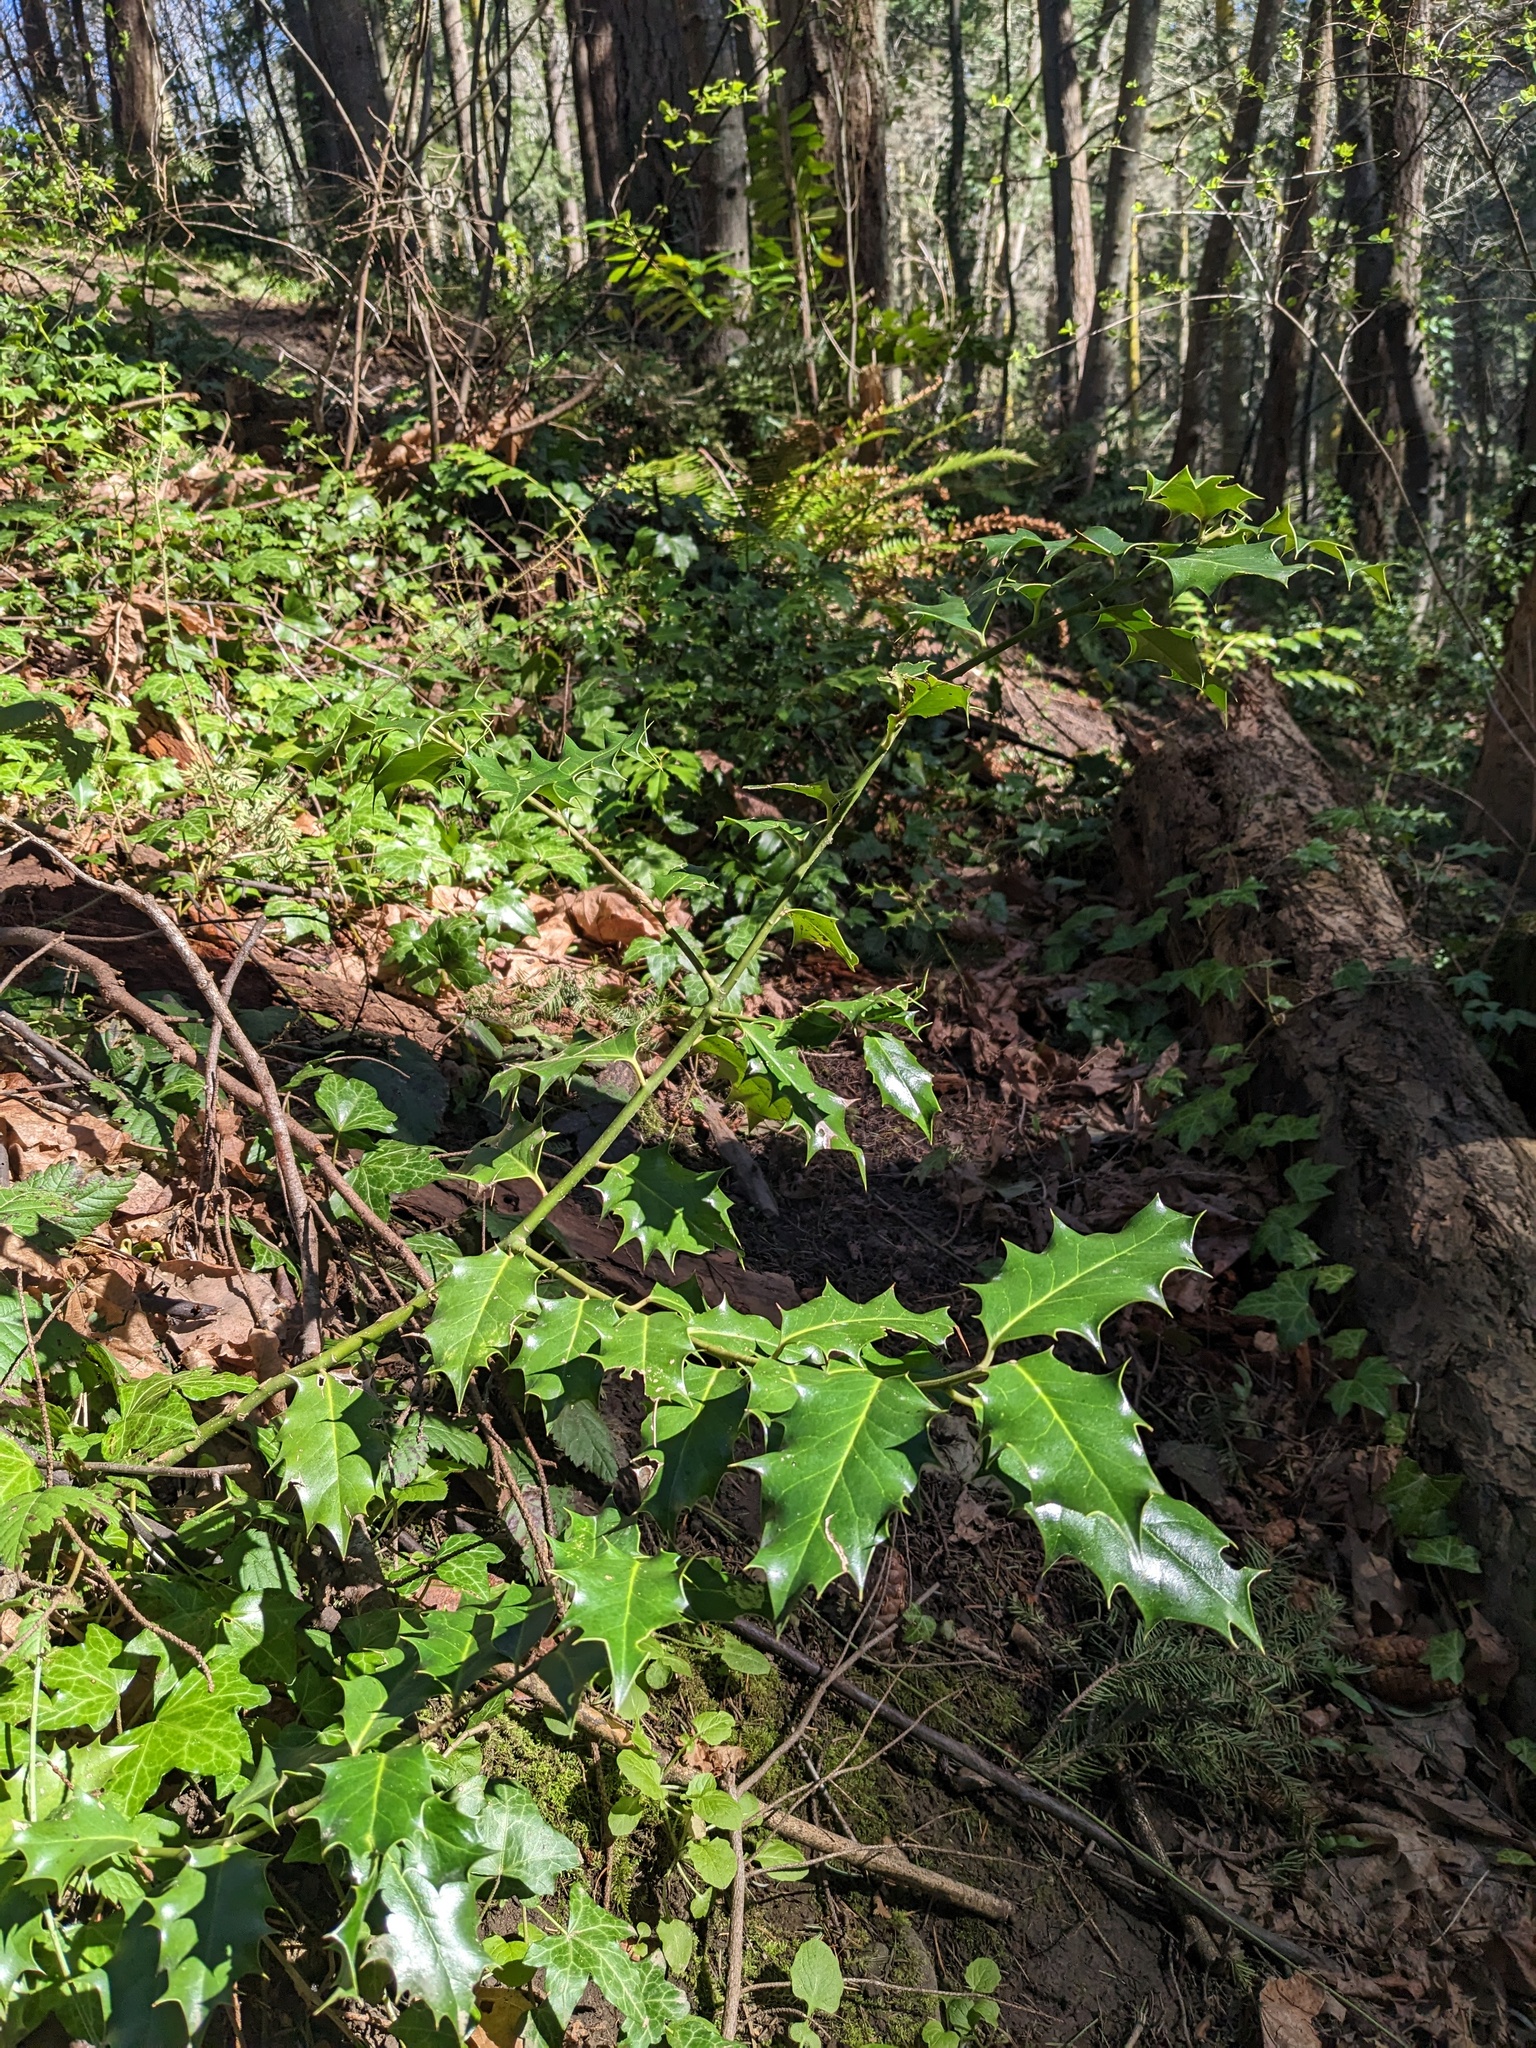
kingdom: Plantae
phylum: Tracheophyta
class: Magnoliopsida
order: Aquifoliales
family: Aquifoliaceae
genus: Ilex
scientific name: Ilex aquifolium
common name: English holly
